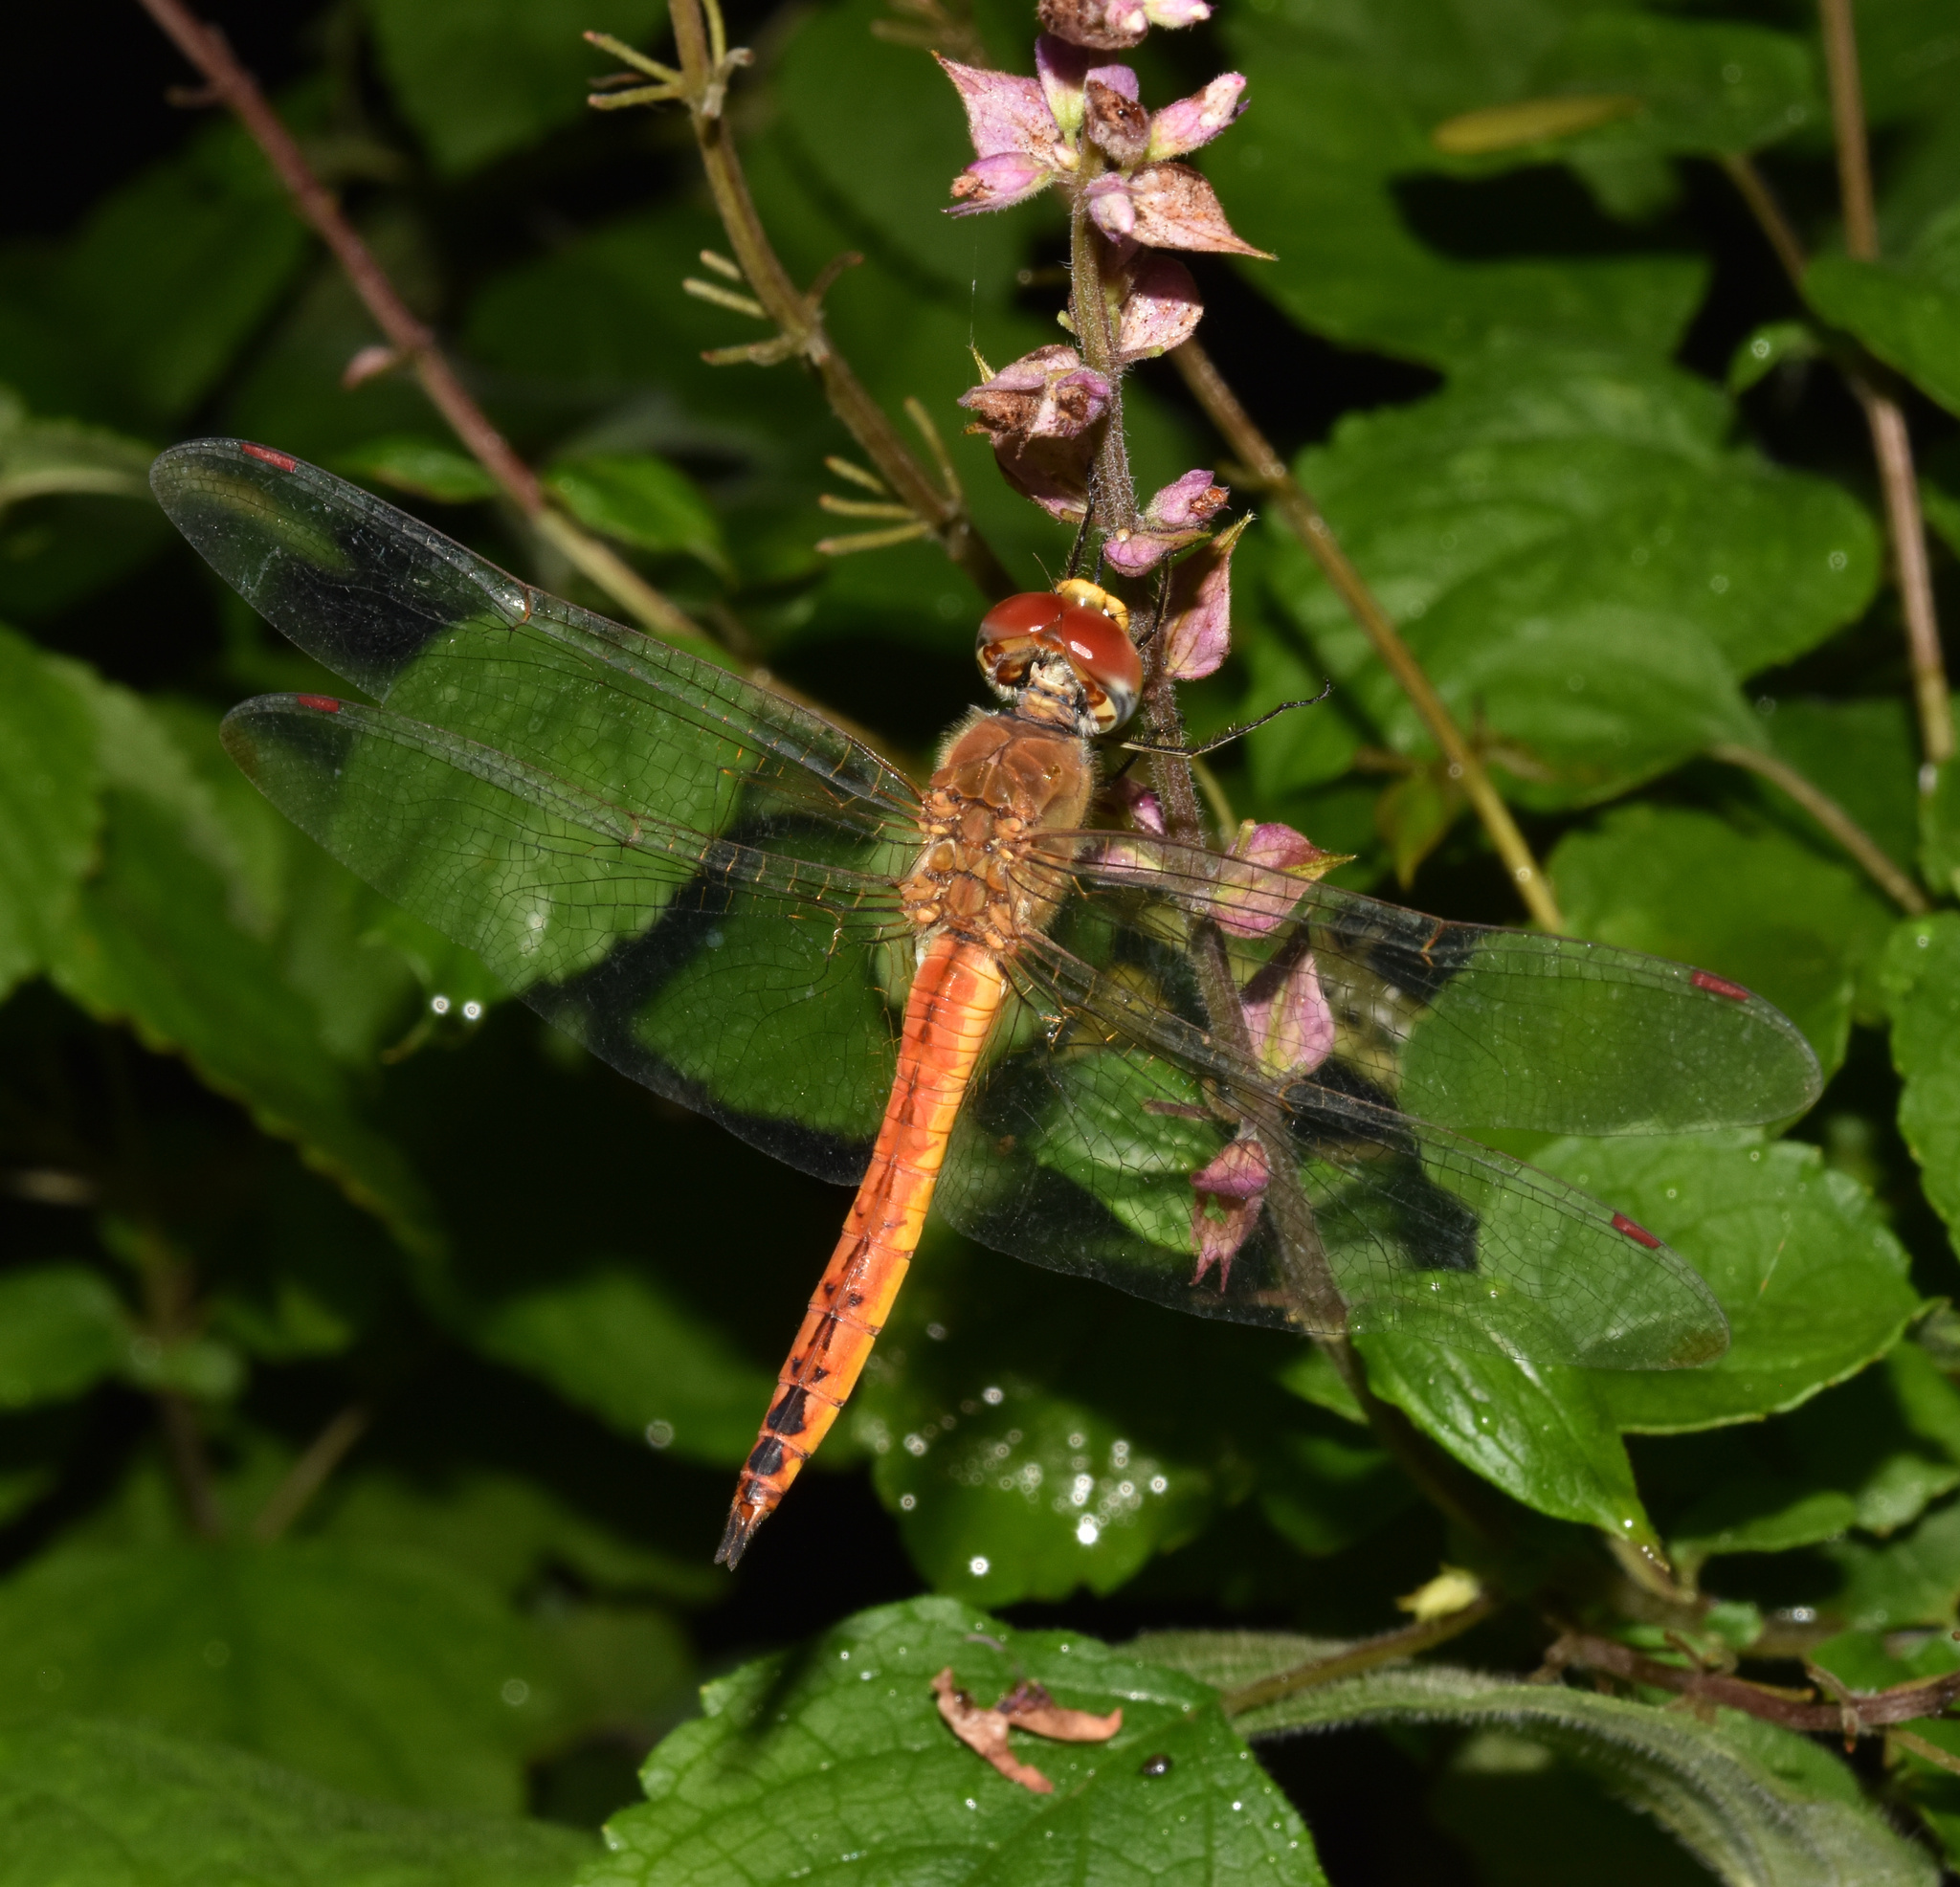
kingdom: Animalia
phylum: Arthropoda
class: Insecta
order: Odonata
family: Libellulidae
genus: Pantala
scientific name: Pantala flavescens
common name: Wandering glider
